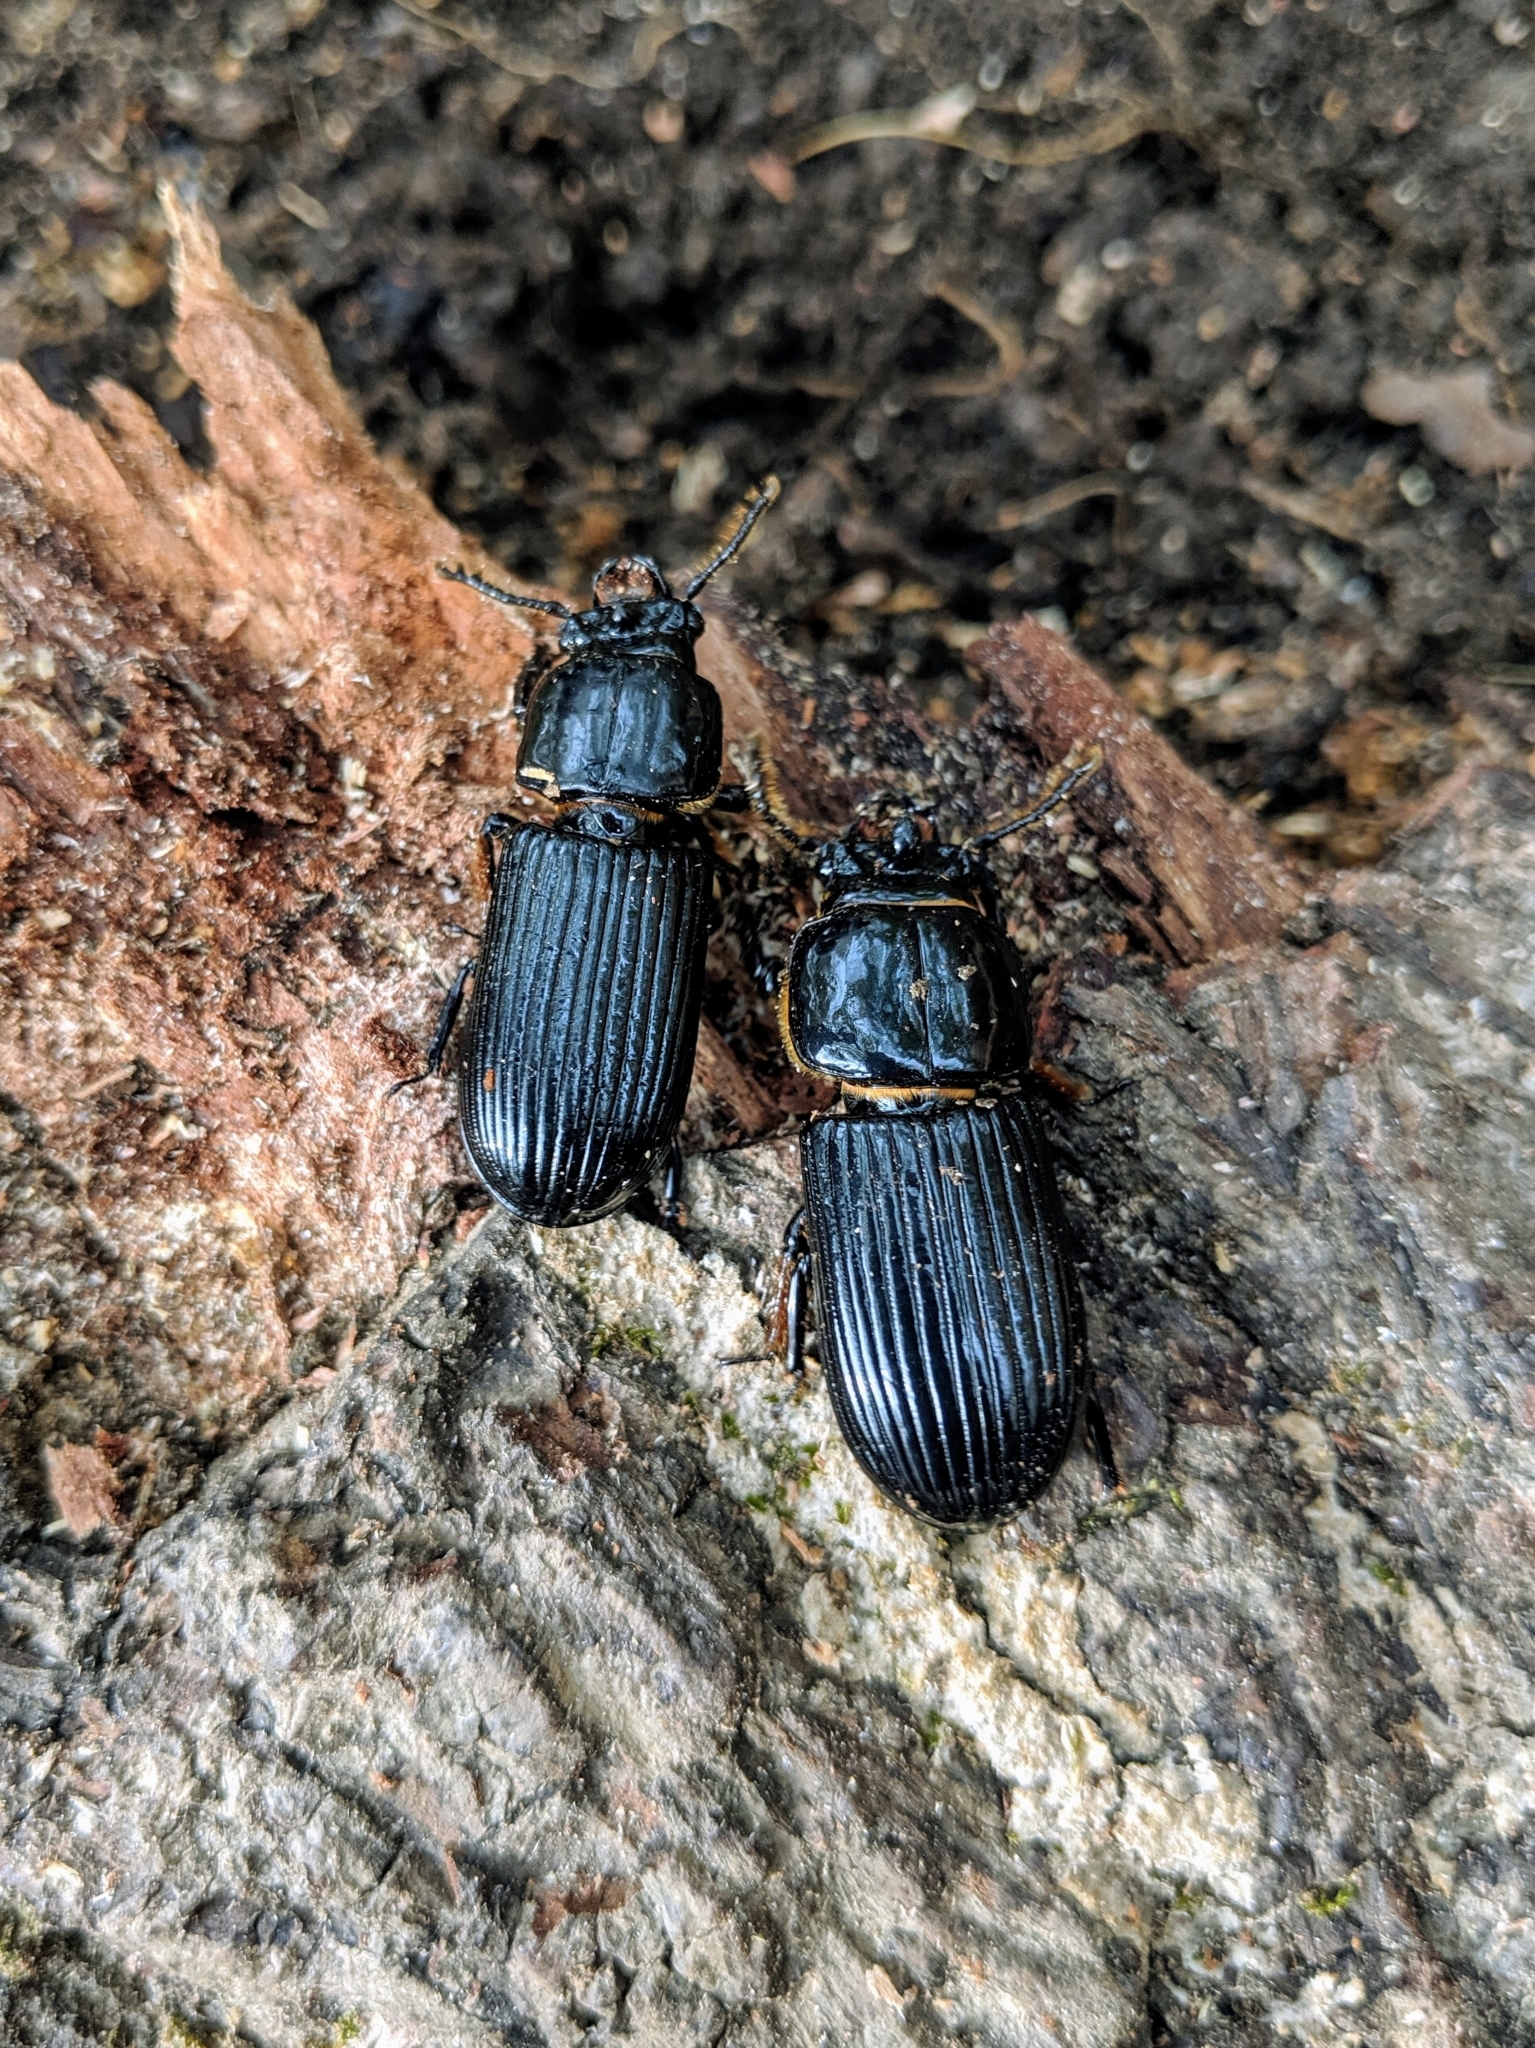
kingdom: Animalia
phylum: Arthropoda
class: Insecta
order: Coleoptera
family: Passalidae
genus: Odontotaenius
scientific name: Odontotaenius disjunctus
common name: Patent leather beetle
